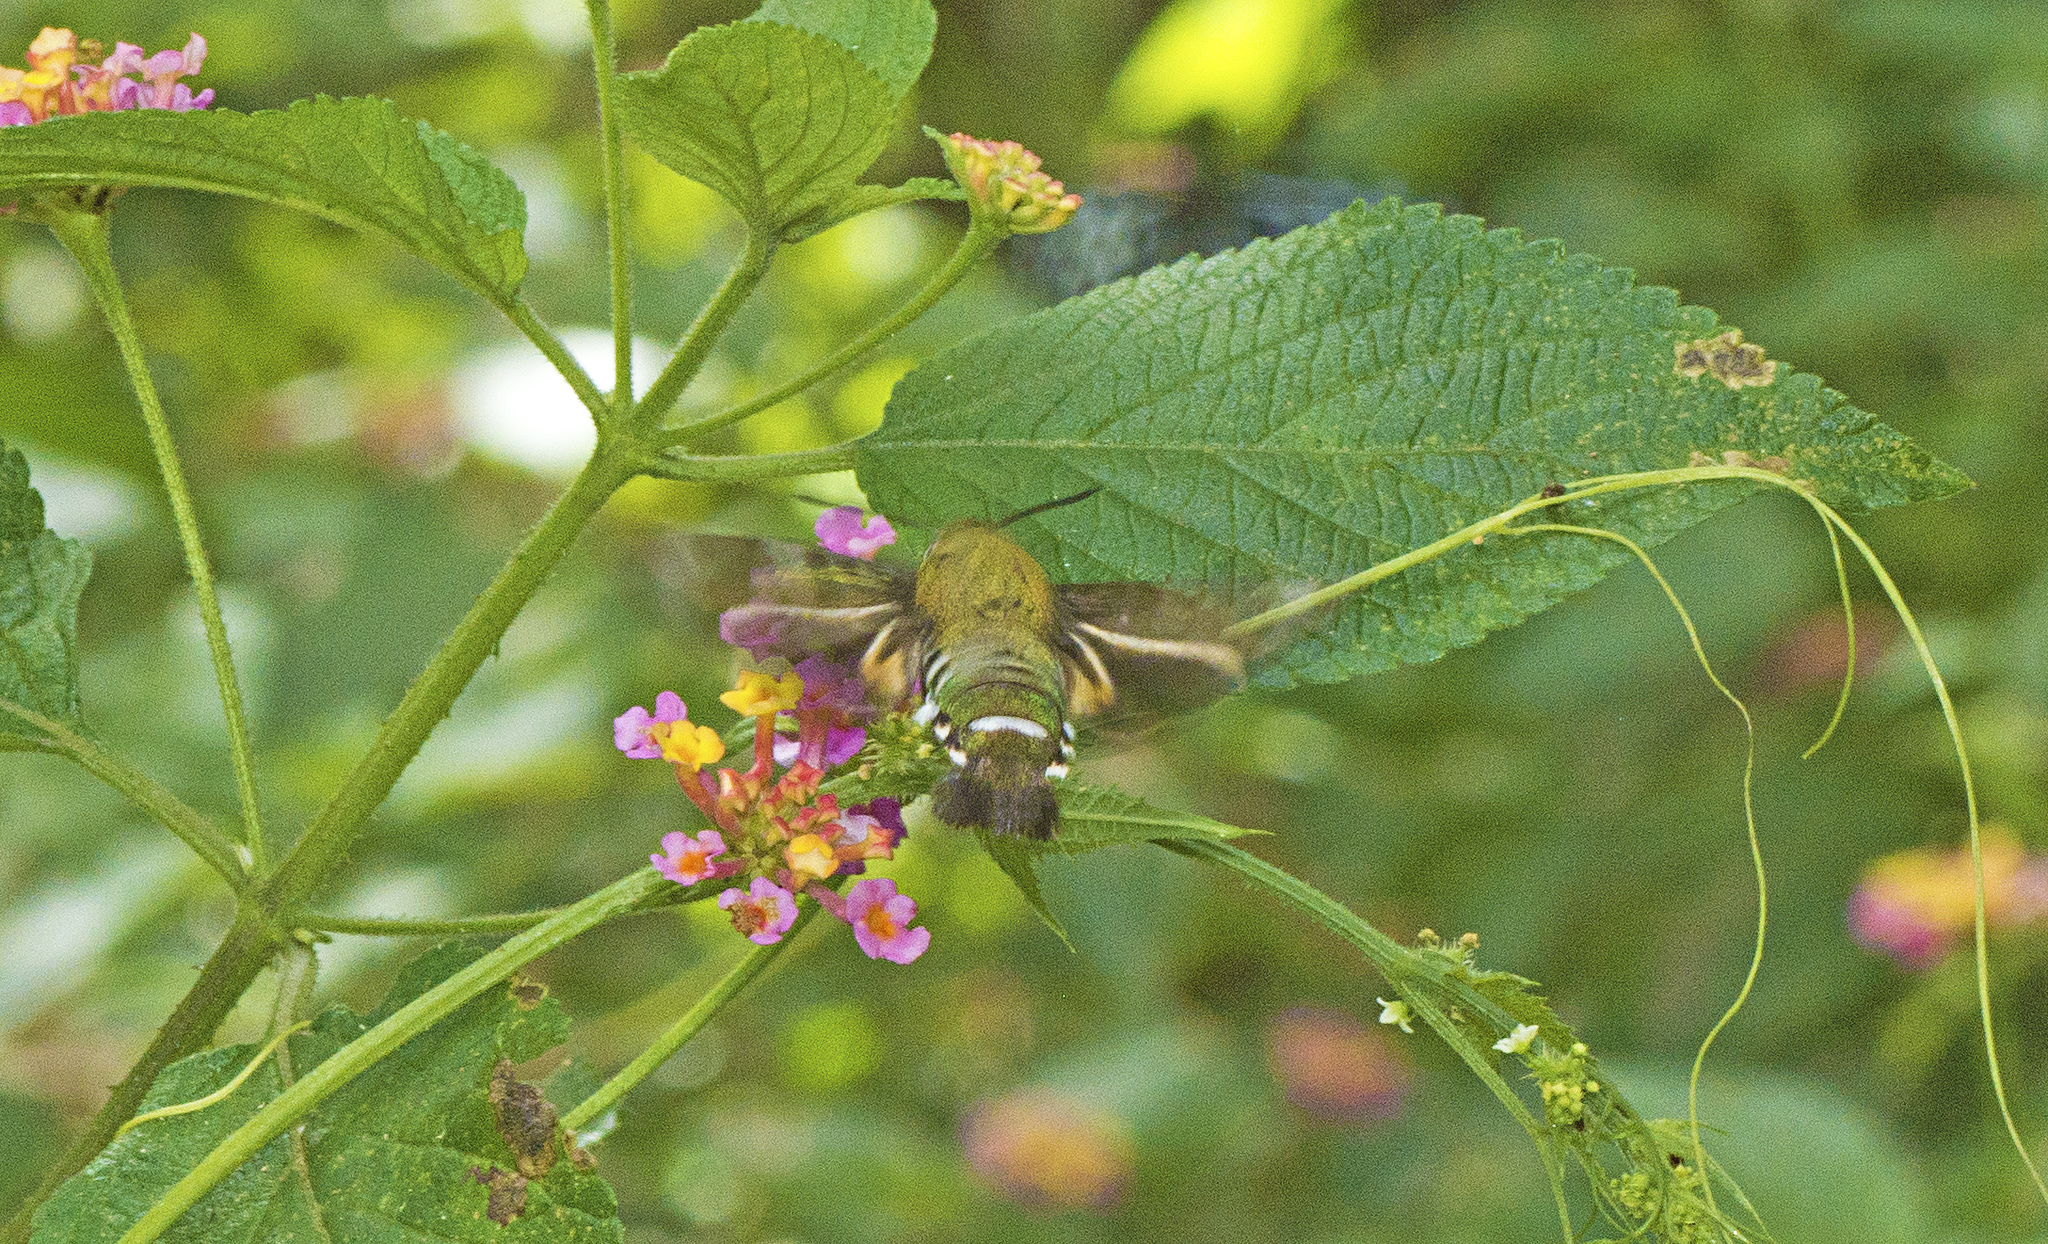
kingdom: Animalia
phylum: Arthropoda
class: Insecta
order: Lepidoptera
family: Sphingidae
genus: Macroglossum
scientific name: Macroglossum micacea
